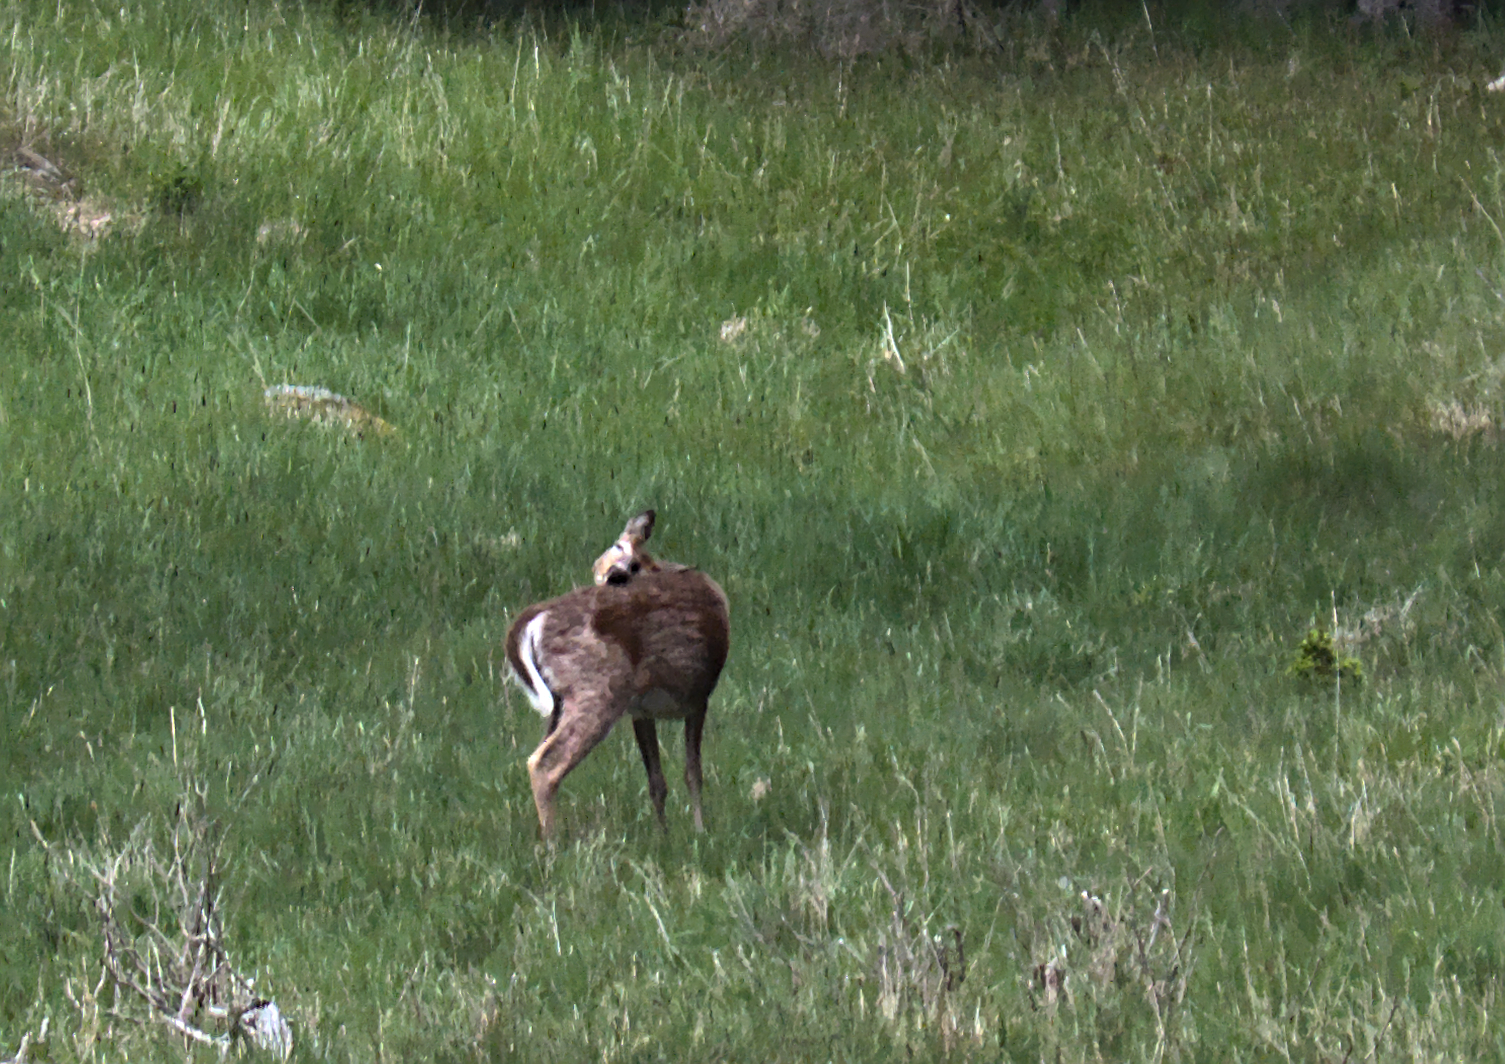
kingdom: Animalia
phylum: Chordata
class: Mammalia
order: Artiodactyla
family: Cervidae
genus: Odocoileus
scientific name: Odocoileus virginianus
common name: White-tailed deer
